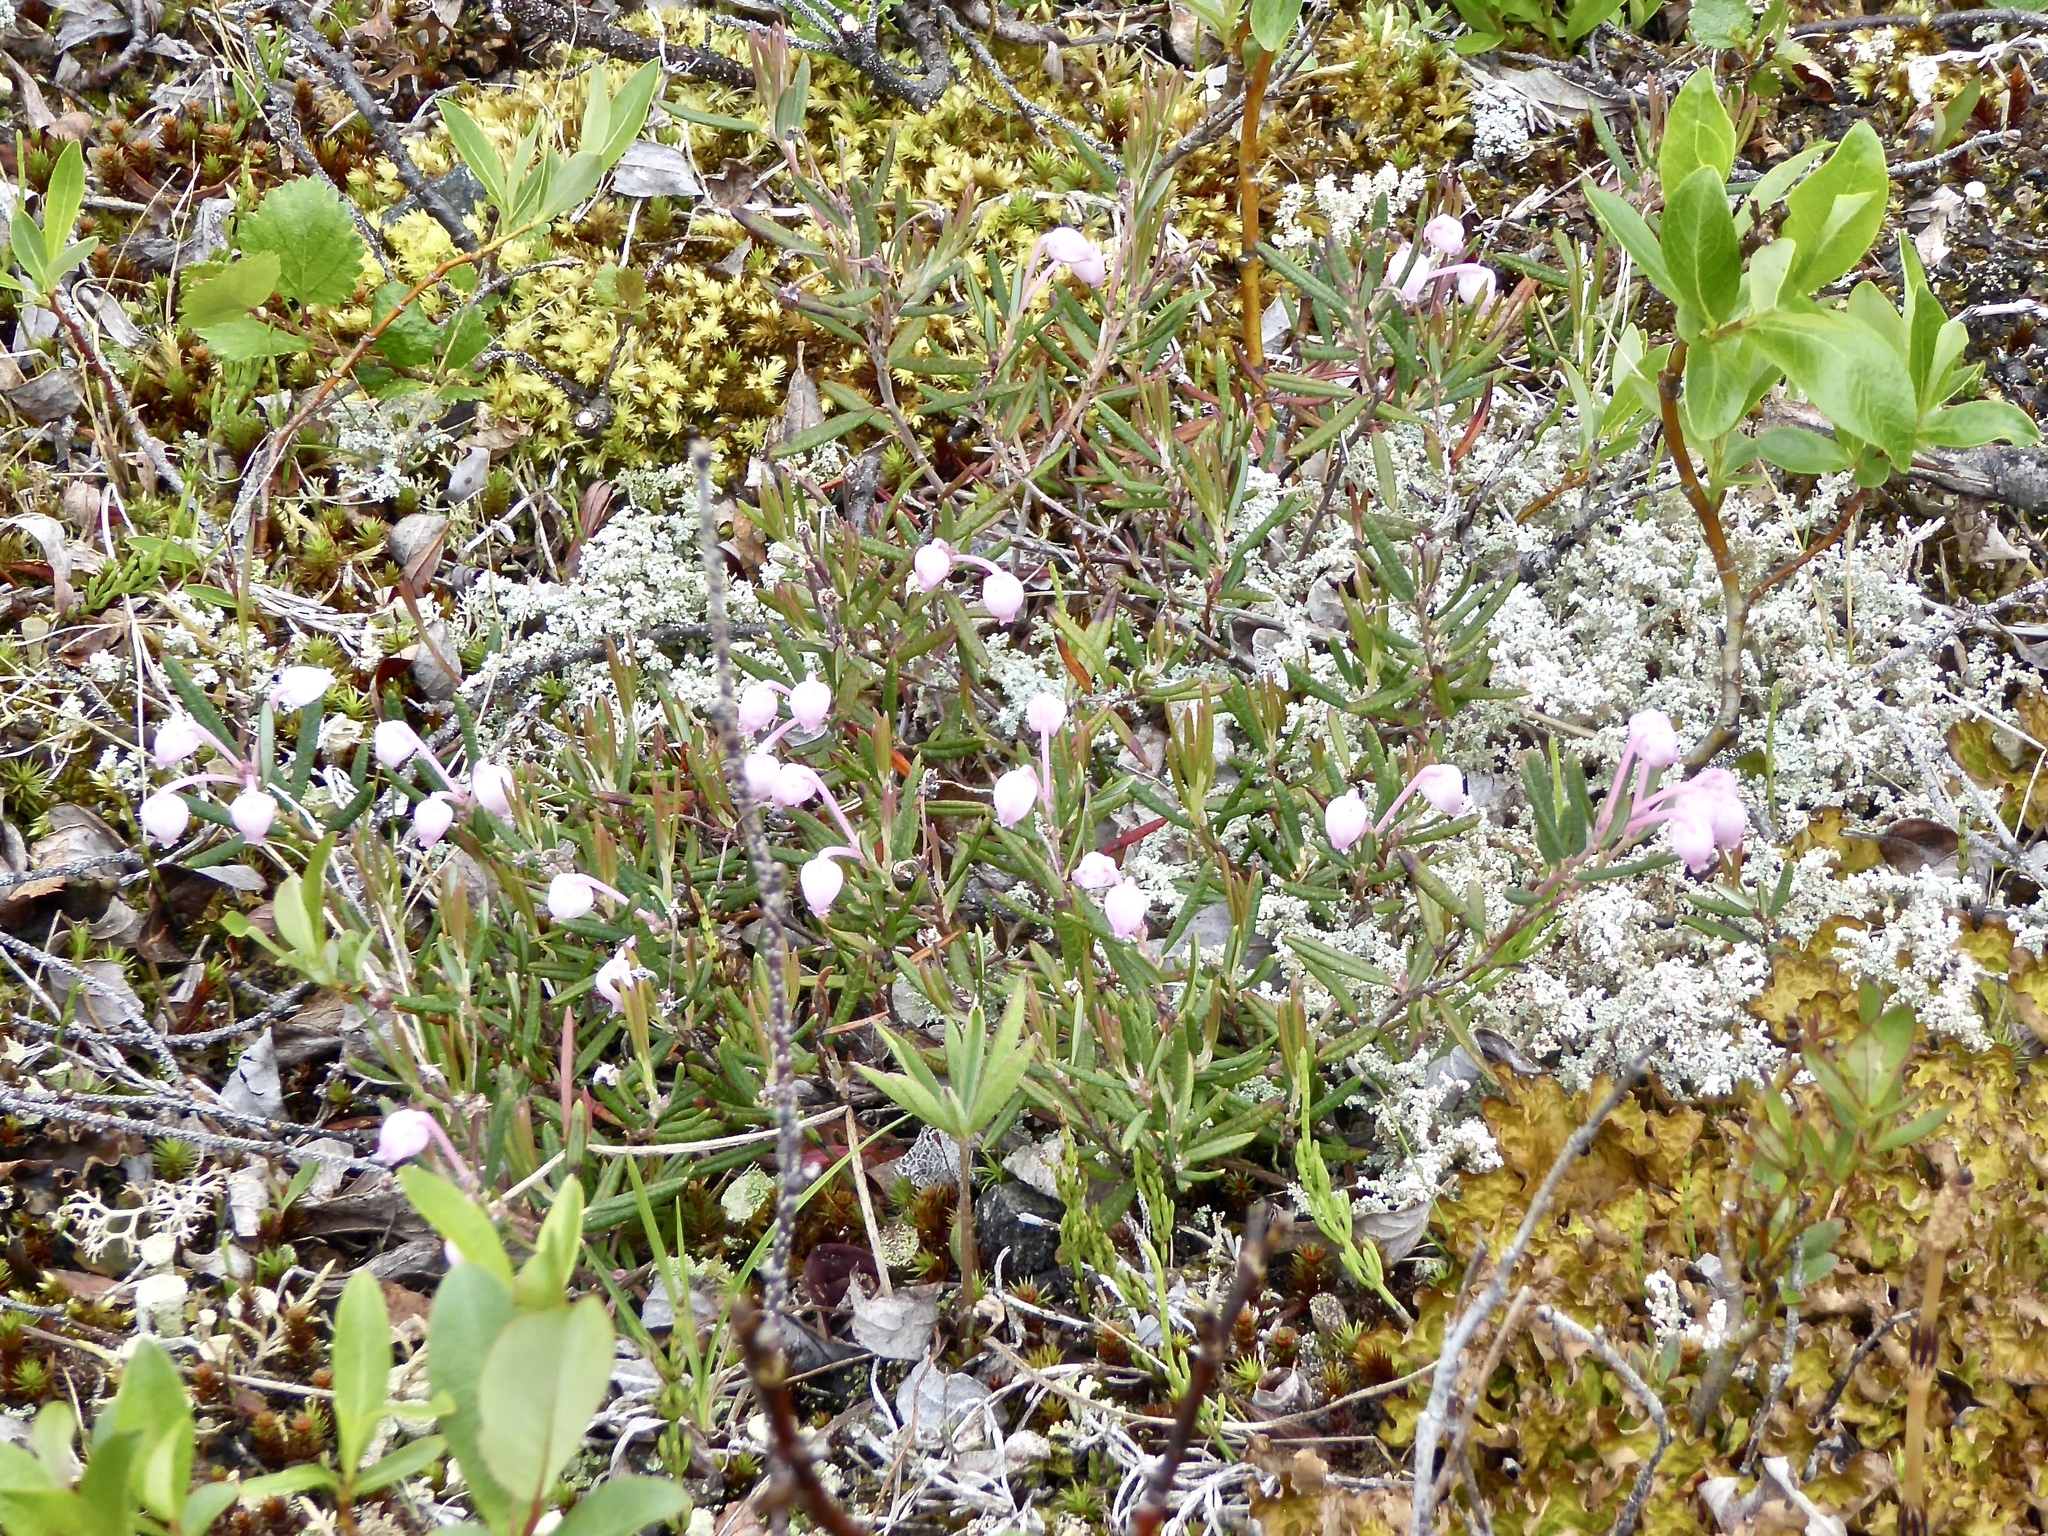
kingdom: Plantae
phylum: Tracheophyta
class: Magnoliopsida
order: Ericales
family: Ericaceae
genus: Andromeda
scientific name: Andromeda polifolia
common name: Bog-rosemary
